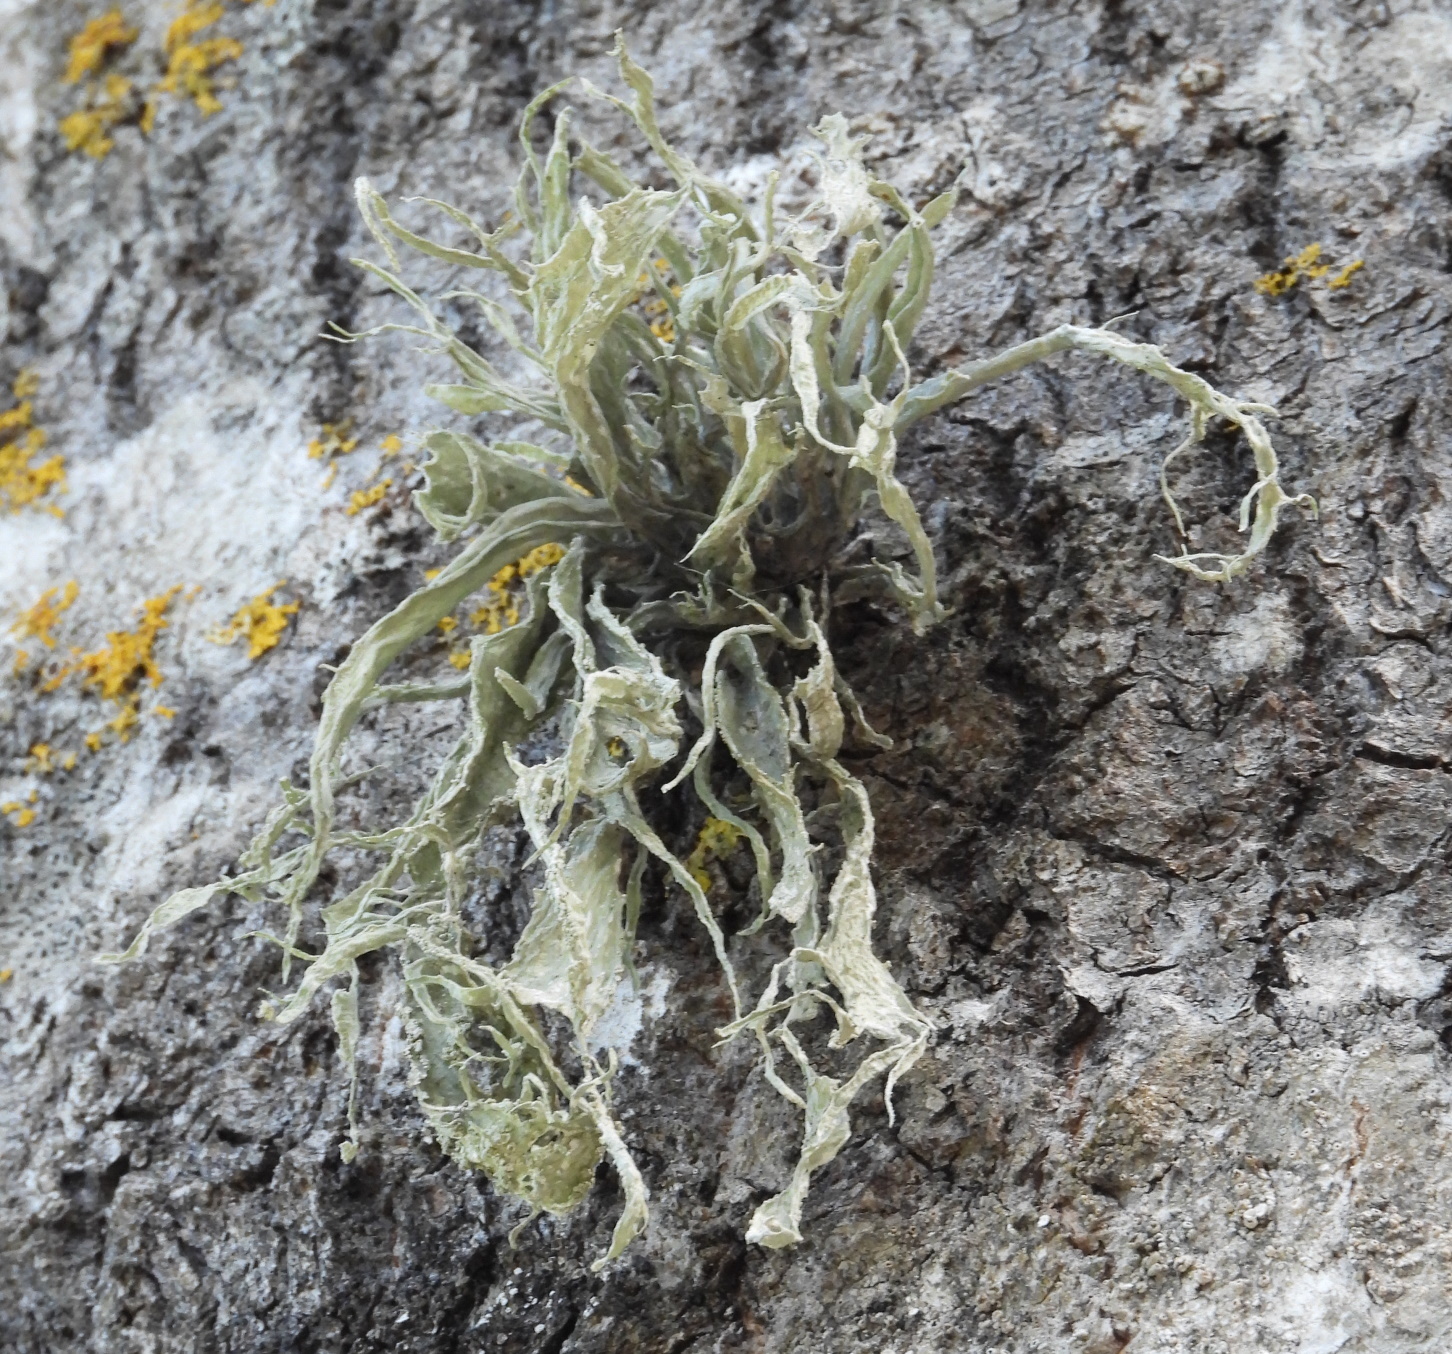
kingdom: Fungi
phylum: Ascomycota
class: Lecanoromycetes
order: Lecanorales
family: Ramalinaceae
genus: Ramalina
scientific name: Ramalina fraxinea
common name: Cartilage lichen
